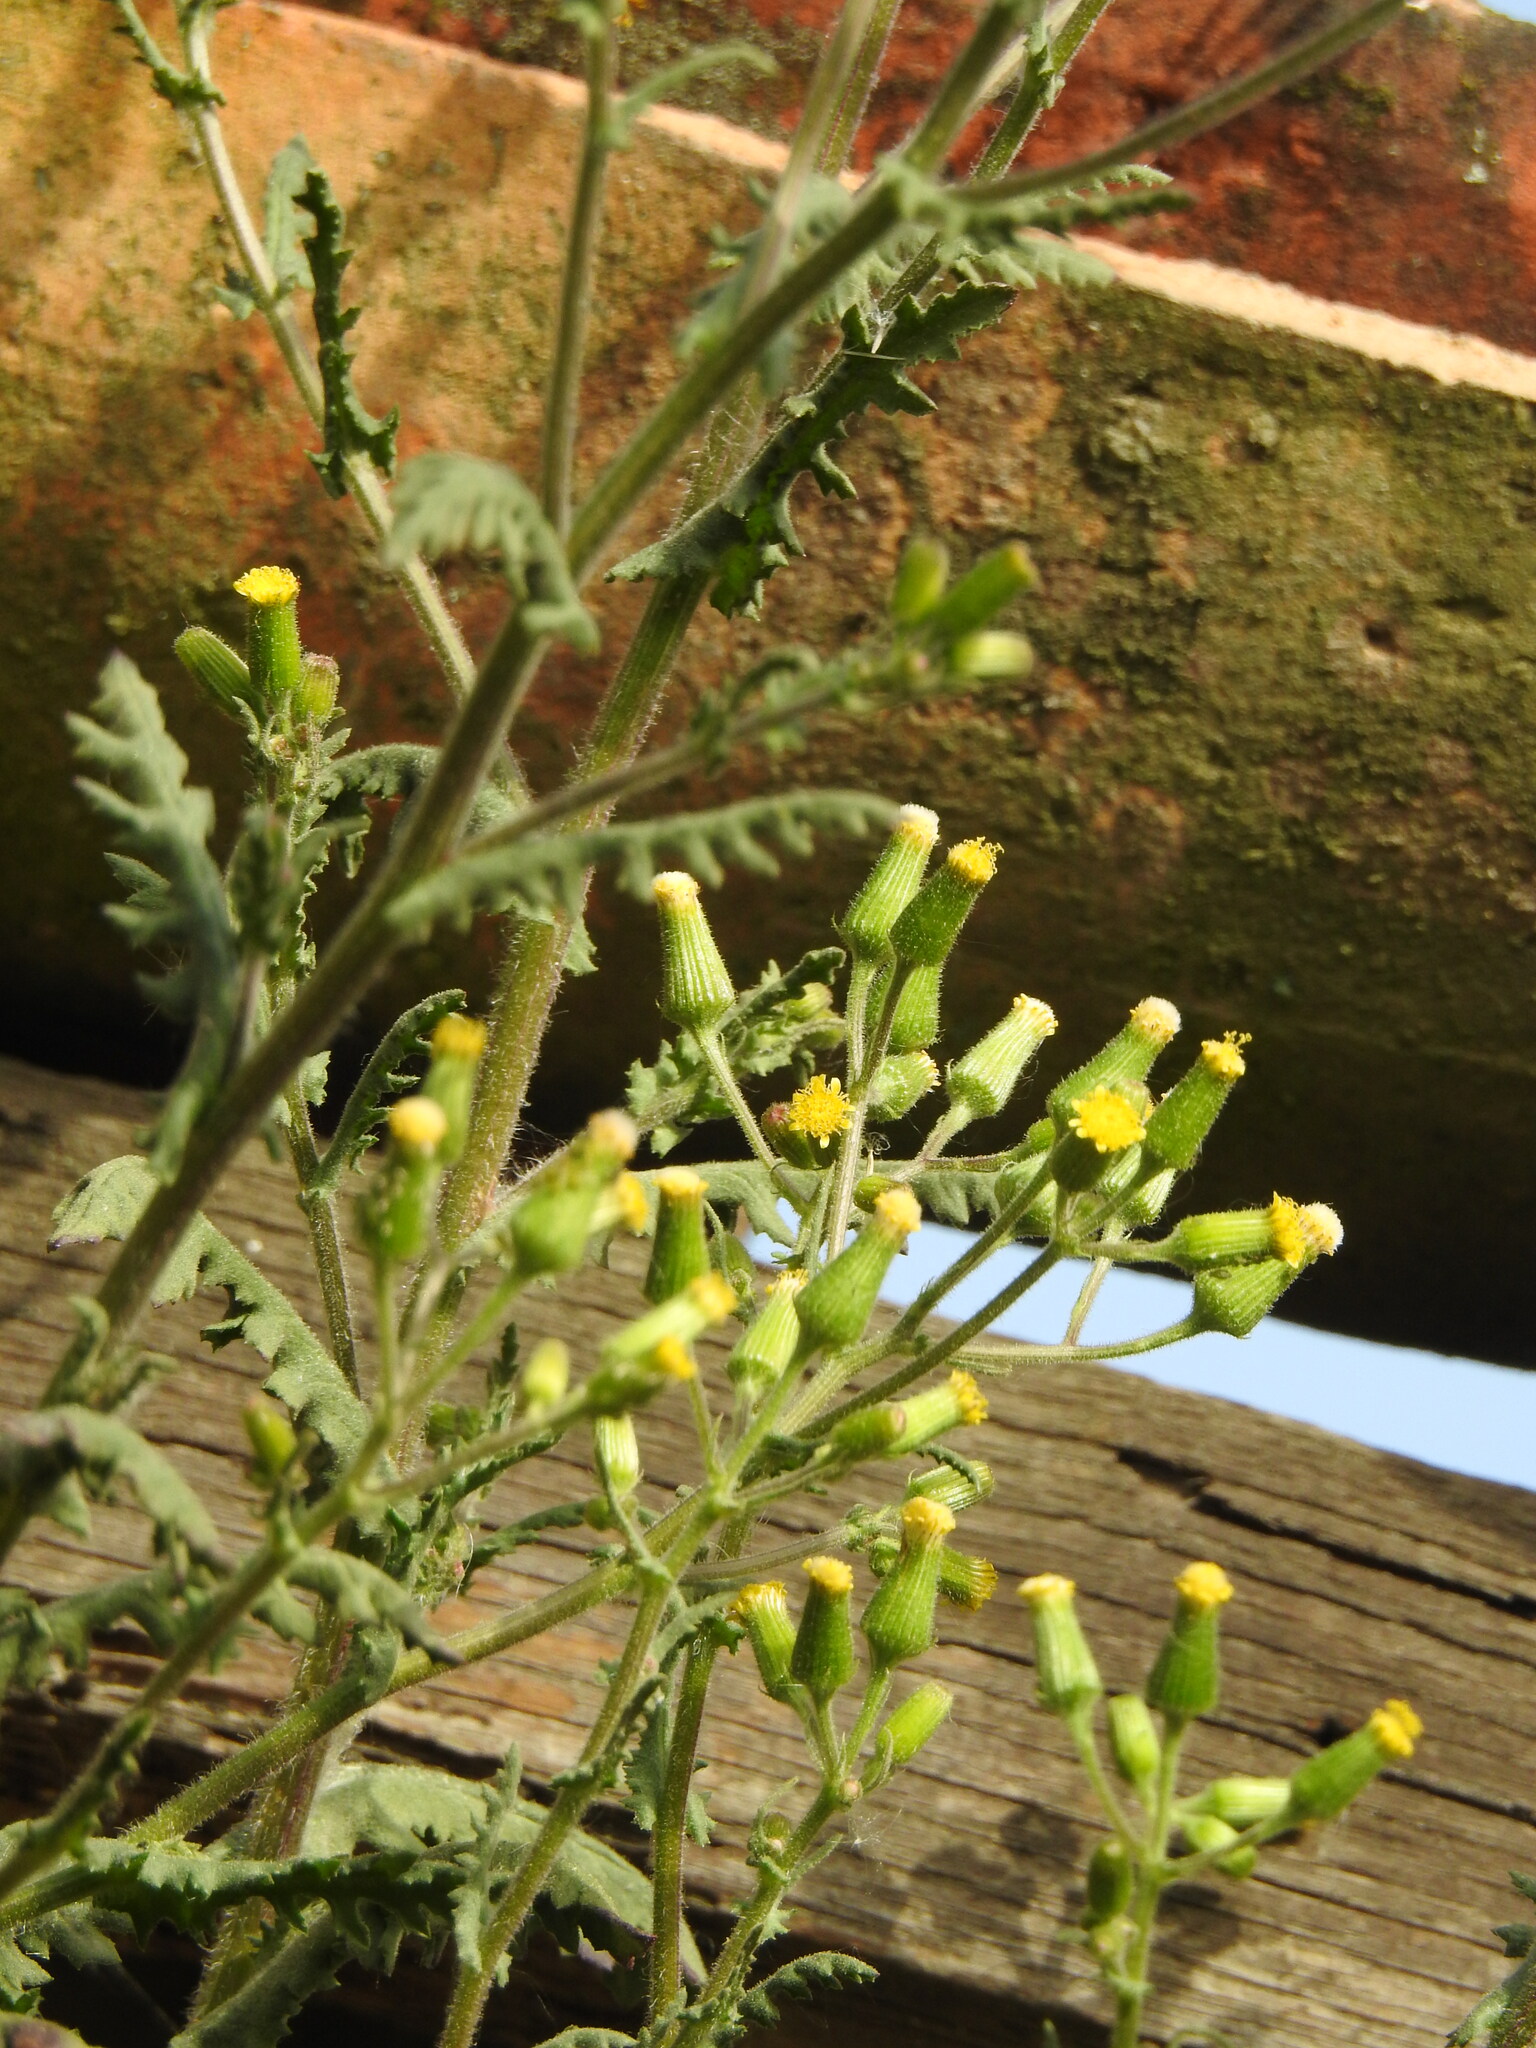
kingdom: Plantae
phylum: Tracheophyta
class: Magnoliopsida
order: Asterales
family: Asteraceae
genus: Senecio
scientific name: Senecio lividus
